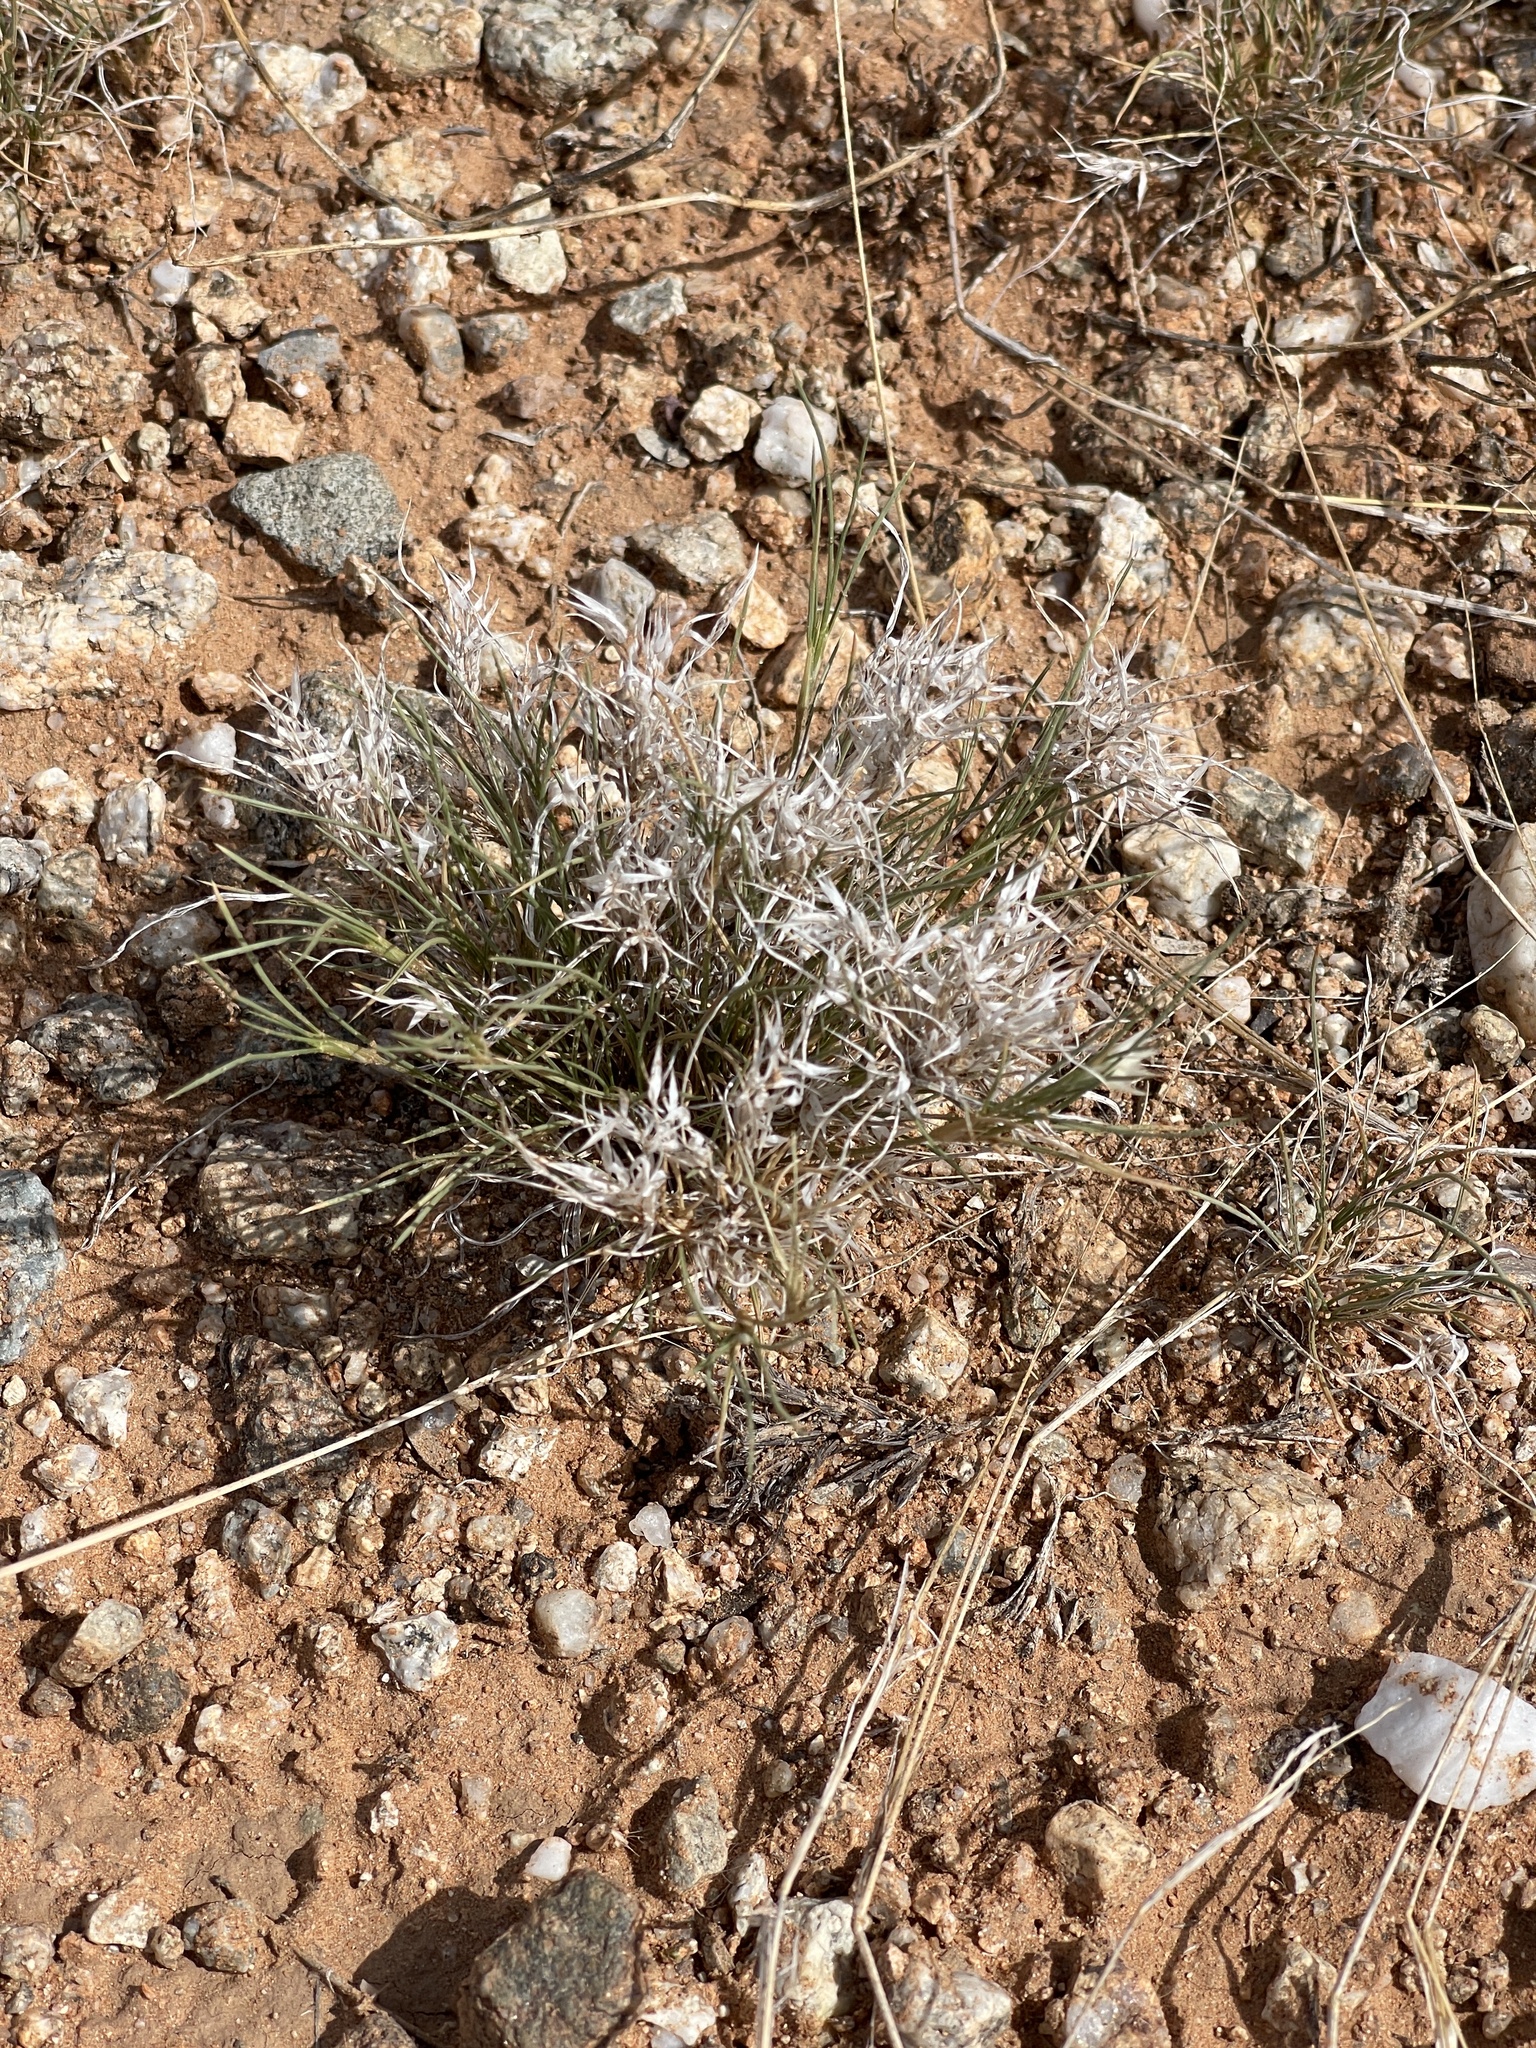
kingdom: Plantae
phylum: Tracheophyta
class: Liliopsida
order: Poales
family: Poaceae
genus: Dasyochloa
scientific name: Dasyochloa pulchella
